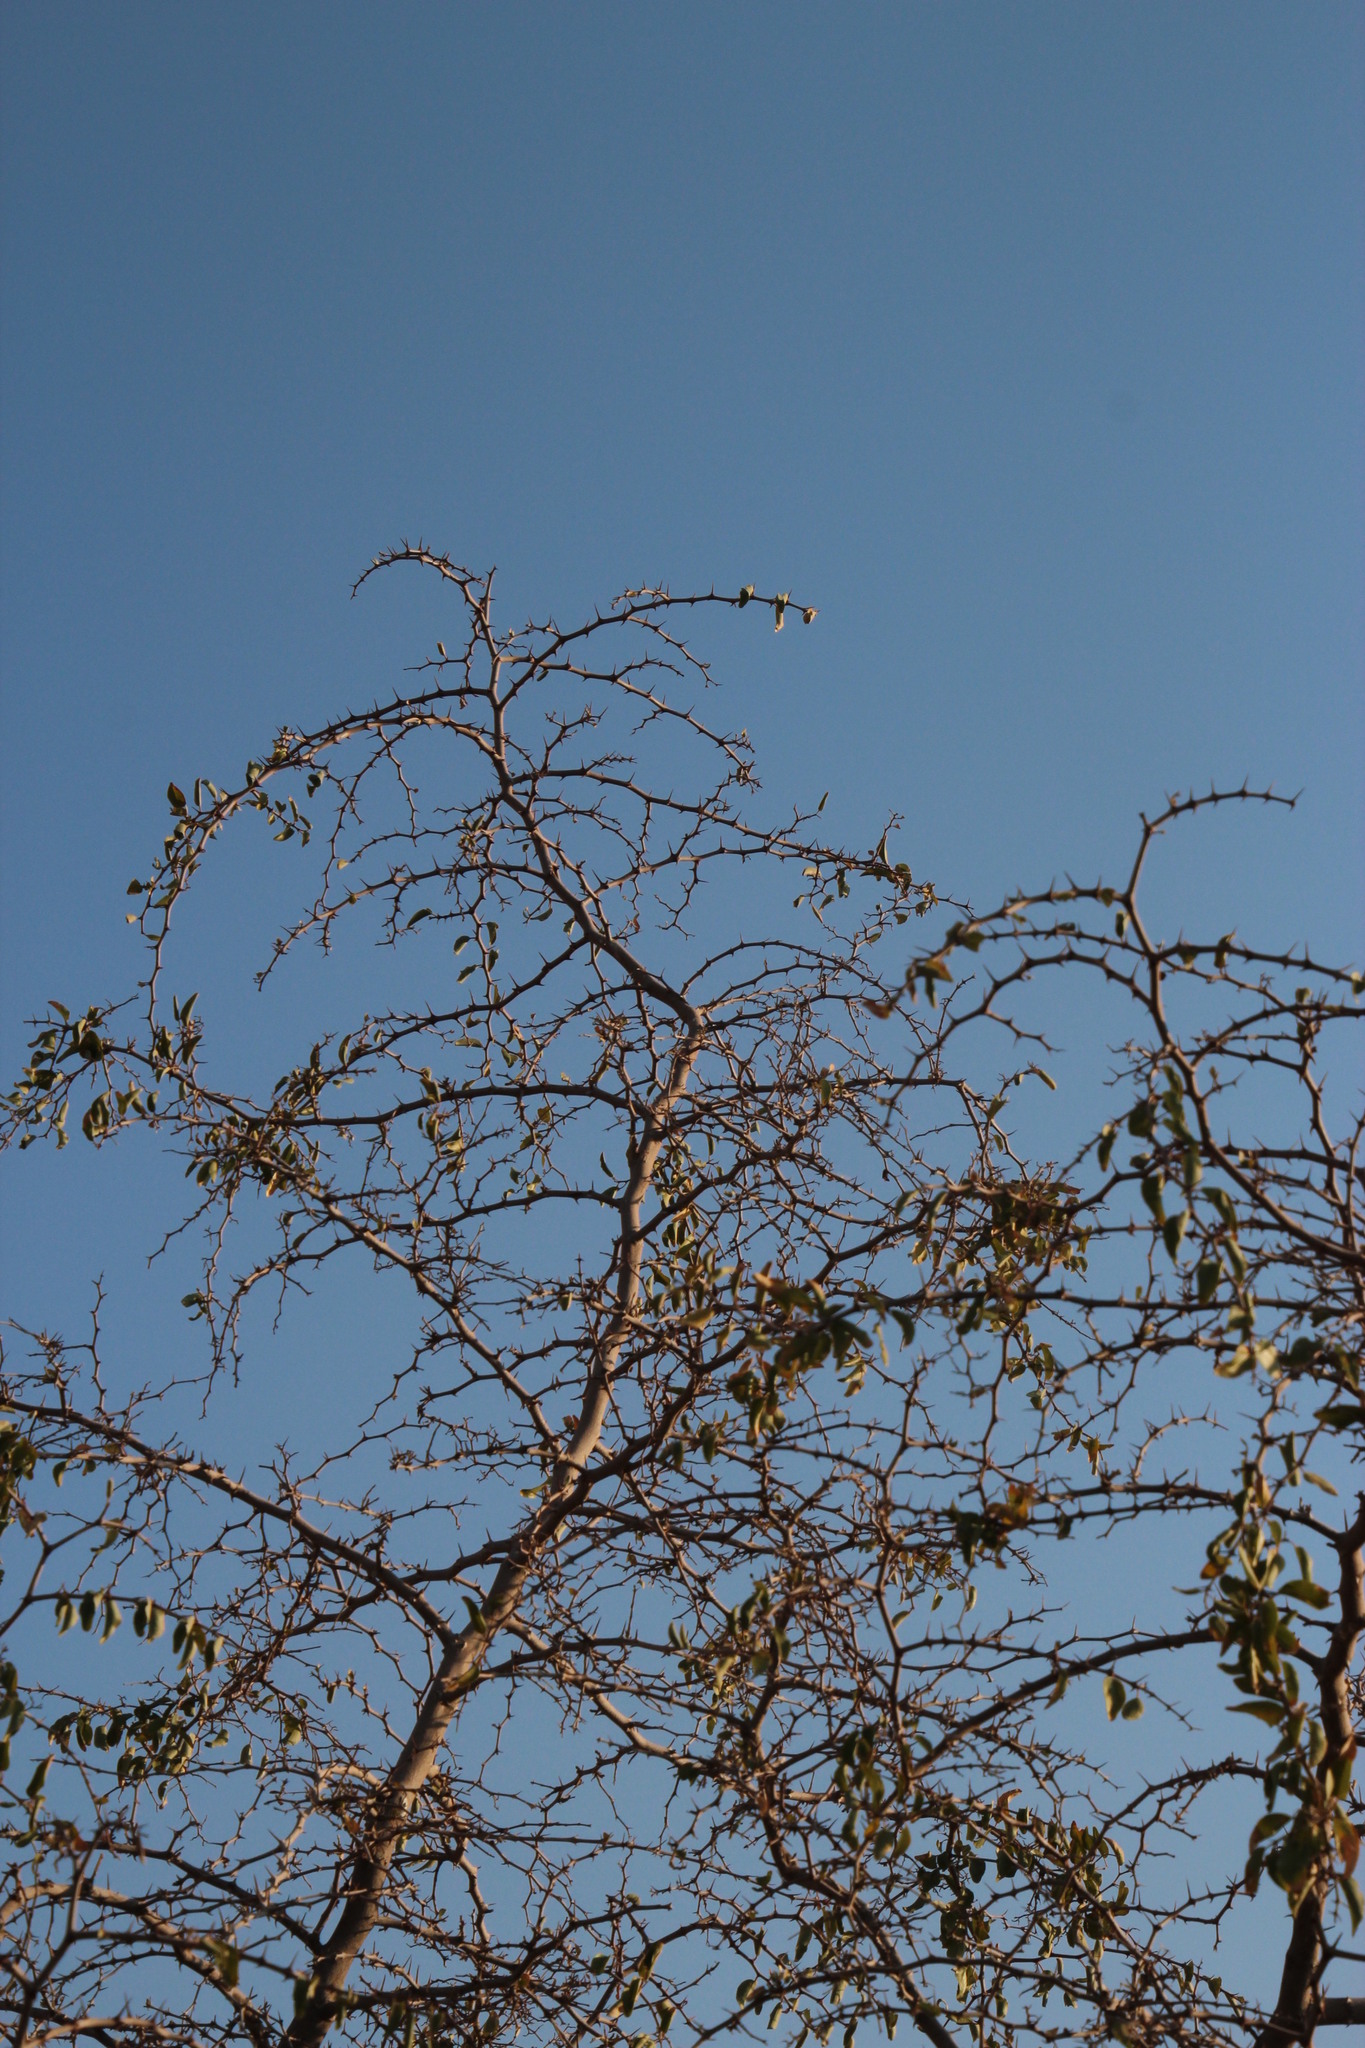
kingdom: Plantae
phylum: Tracheophyta
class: Magnoliopsida
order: Rosales
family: Rhamnaceae
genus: Ziziphus
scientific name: Ziziphus mucronata
